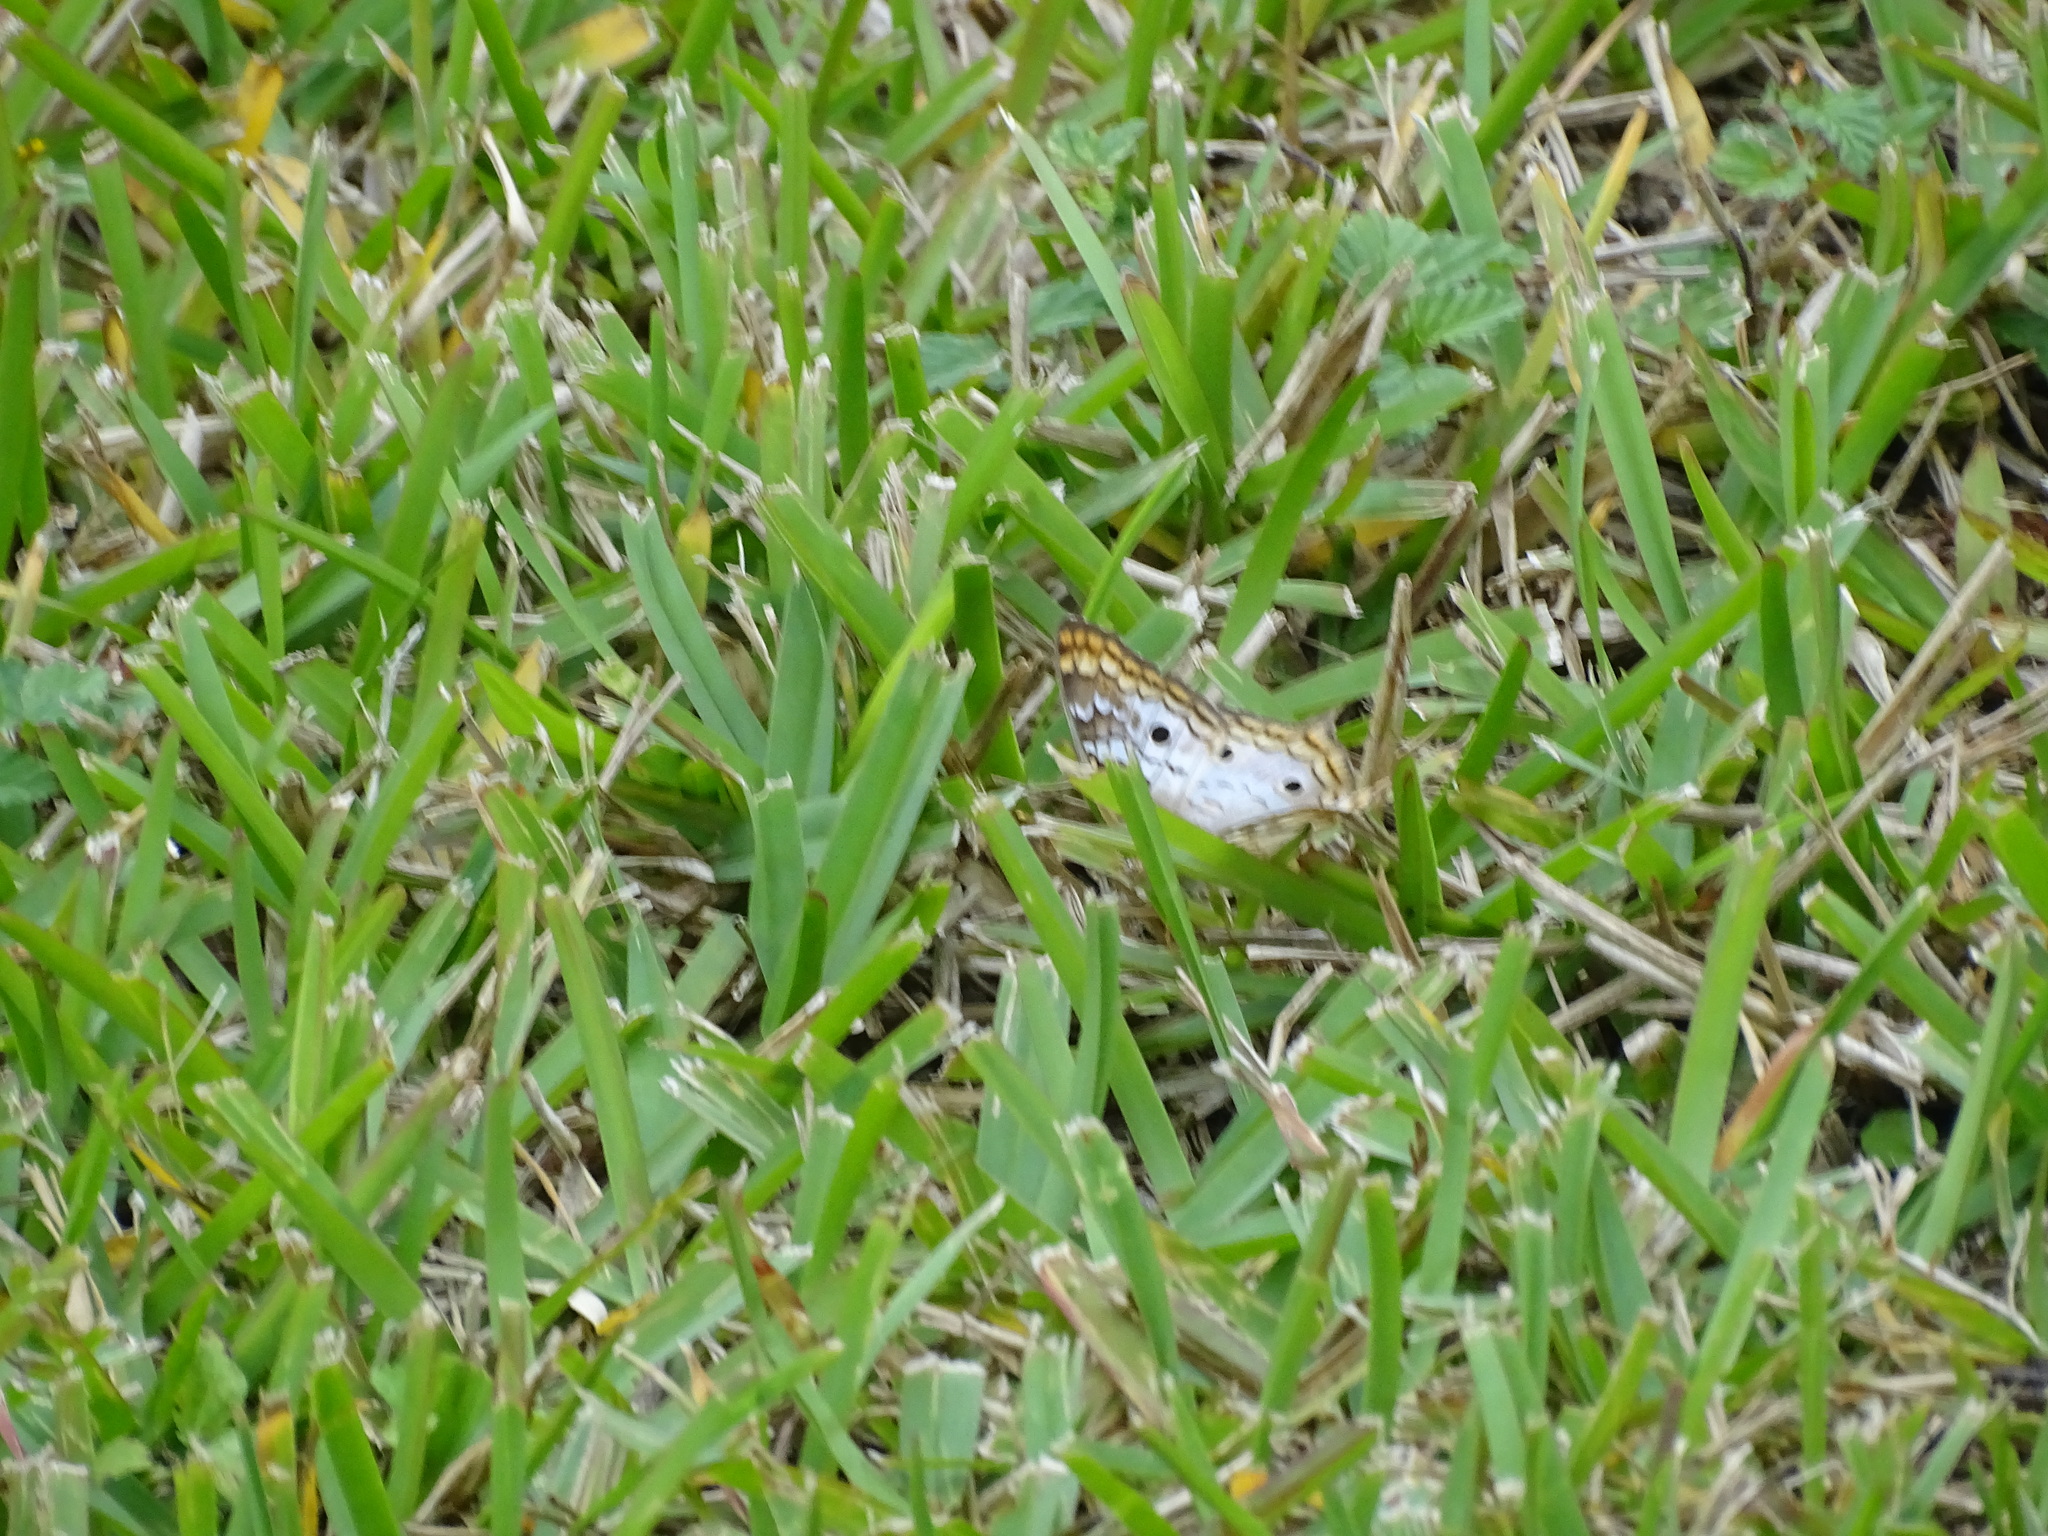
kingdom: Animalia
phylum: Arthropoda
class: Insecta
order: Lepidoptera
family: Nymphalidae
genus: Anartia
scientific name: Anartia jatrophae
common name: White peacock
